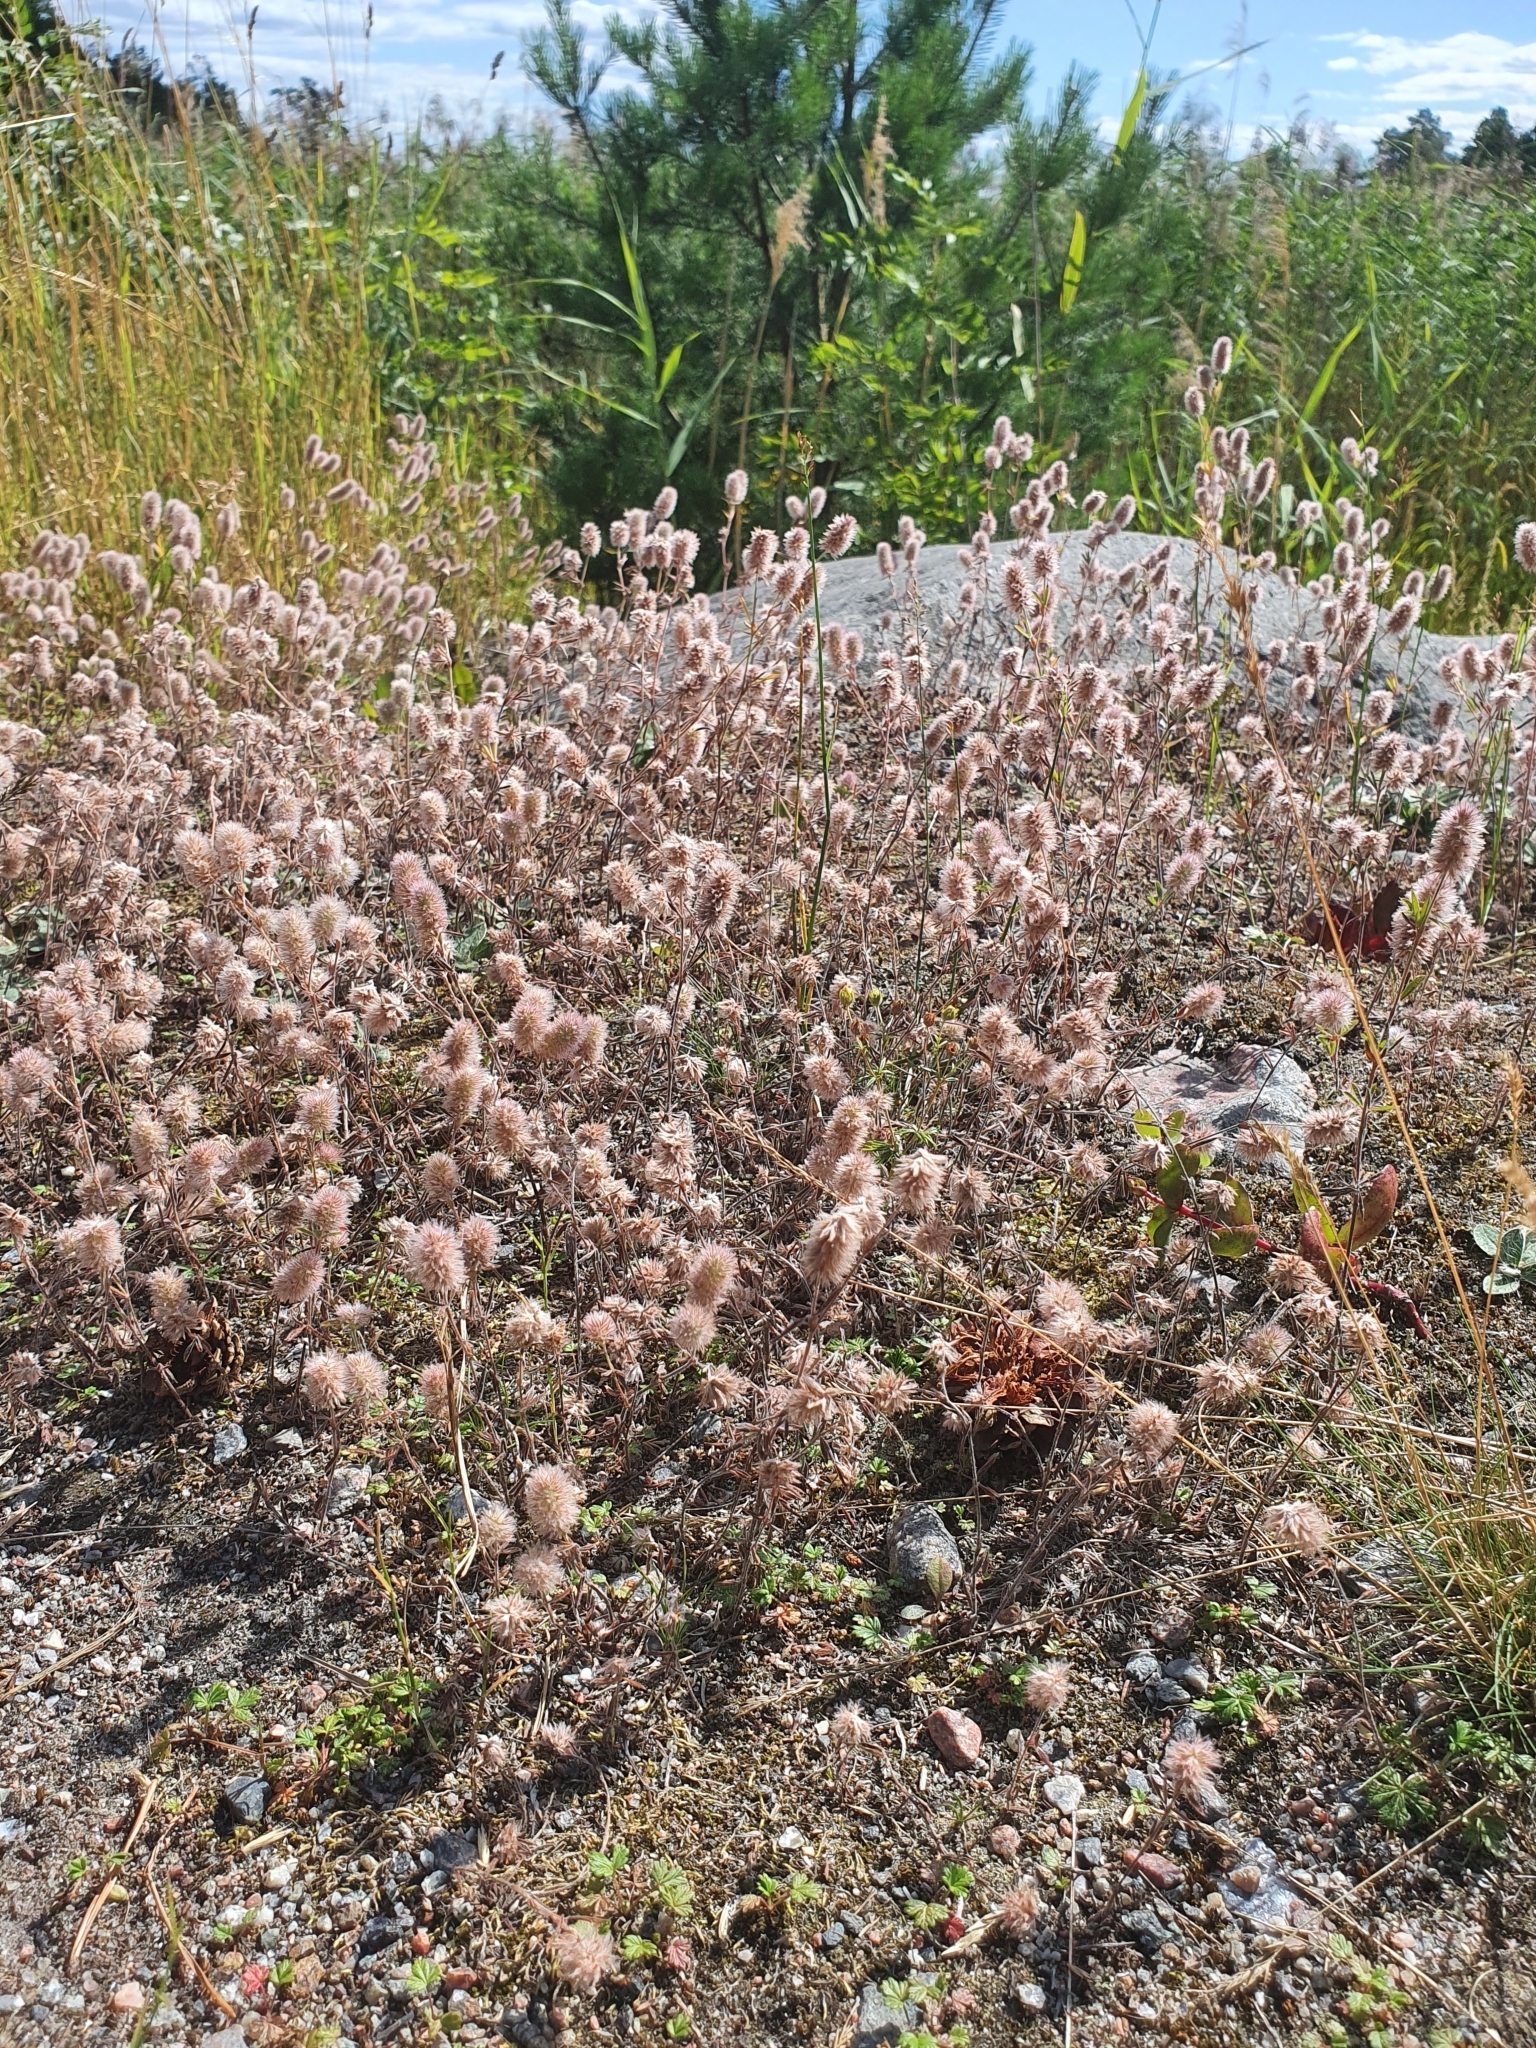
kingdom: Plantae
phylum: Tracheophyta
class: Magnoliopsida
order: Fabales
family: Fabaceae
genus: Trifolium
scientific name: Trifolium arvense
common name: Hare's-foot clover
